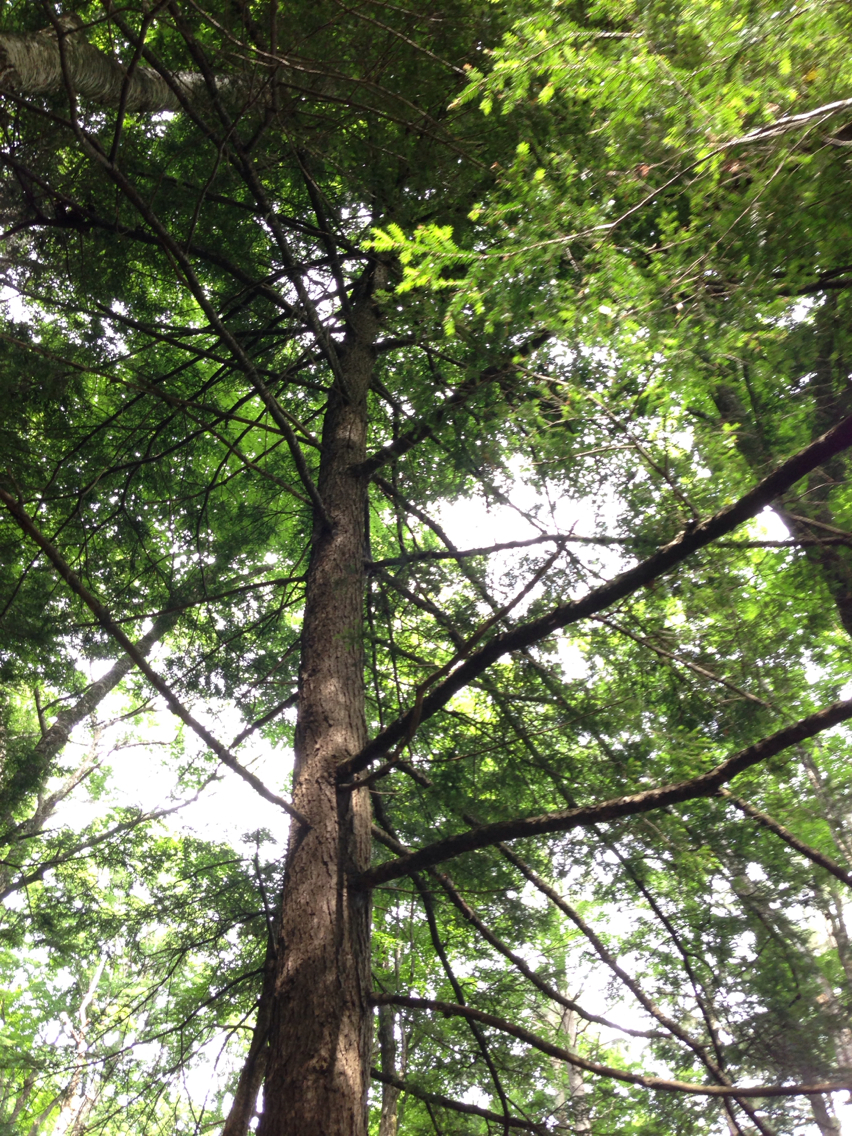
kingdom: Plantae
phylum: Tracheophyta
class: Pinopsida
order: Pinales
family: Pinaceae
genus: Tsuga
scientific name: Tsuga canadensis
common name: Eastern hemlock
